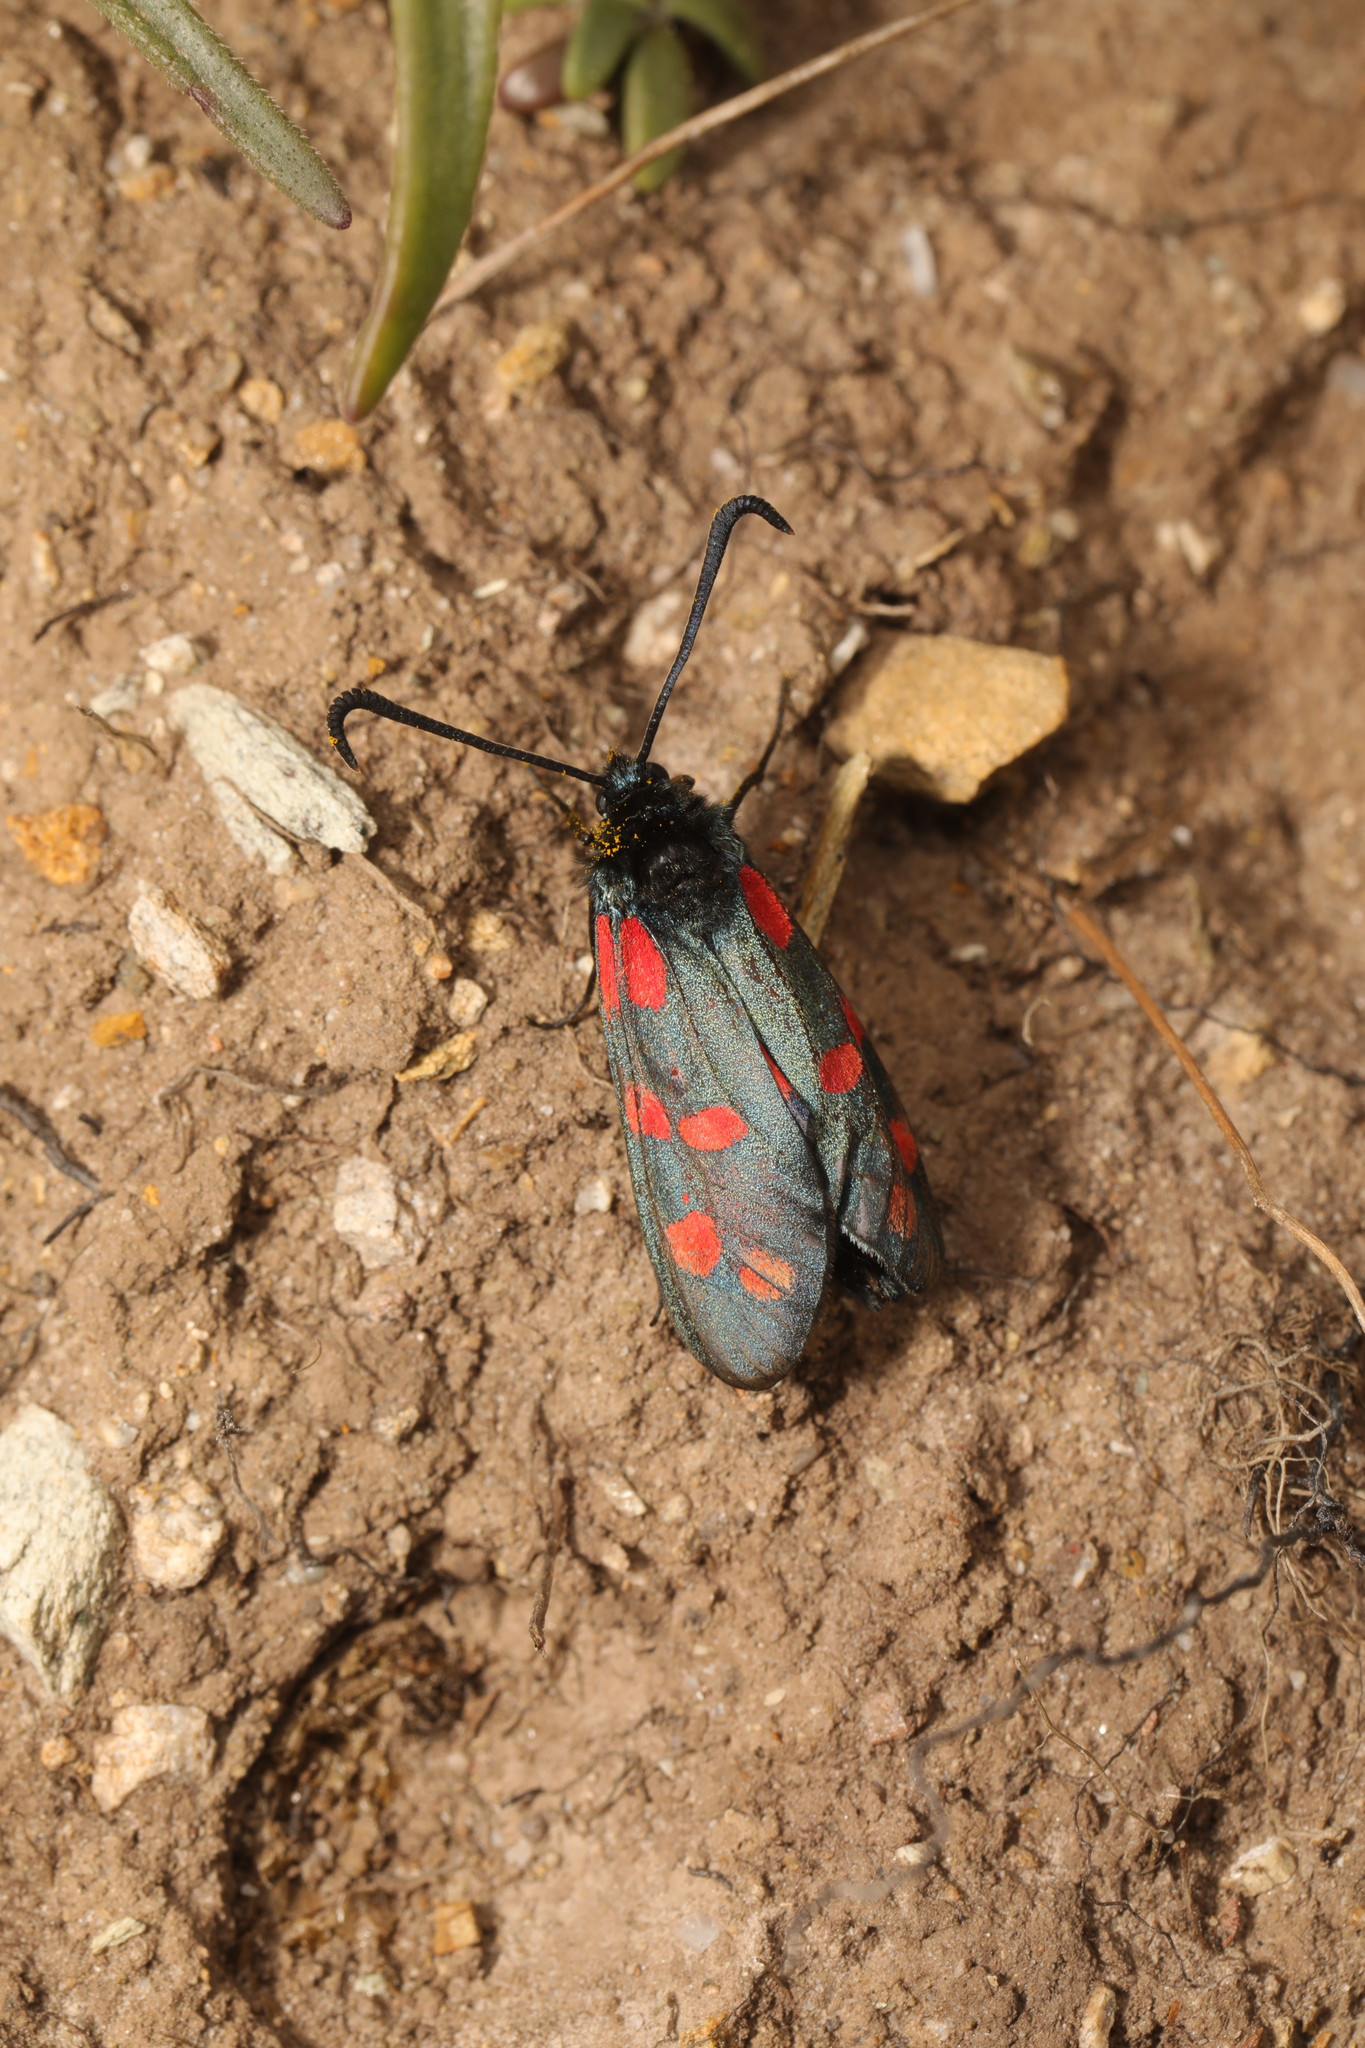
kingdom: Animalia
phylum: Arthropoda
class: Insecta
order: Lepidoptera
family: Zygaenidae
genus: Zygaena
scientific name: Zygaena filipendulae
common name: Six-spot burnet
